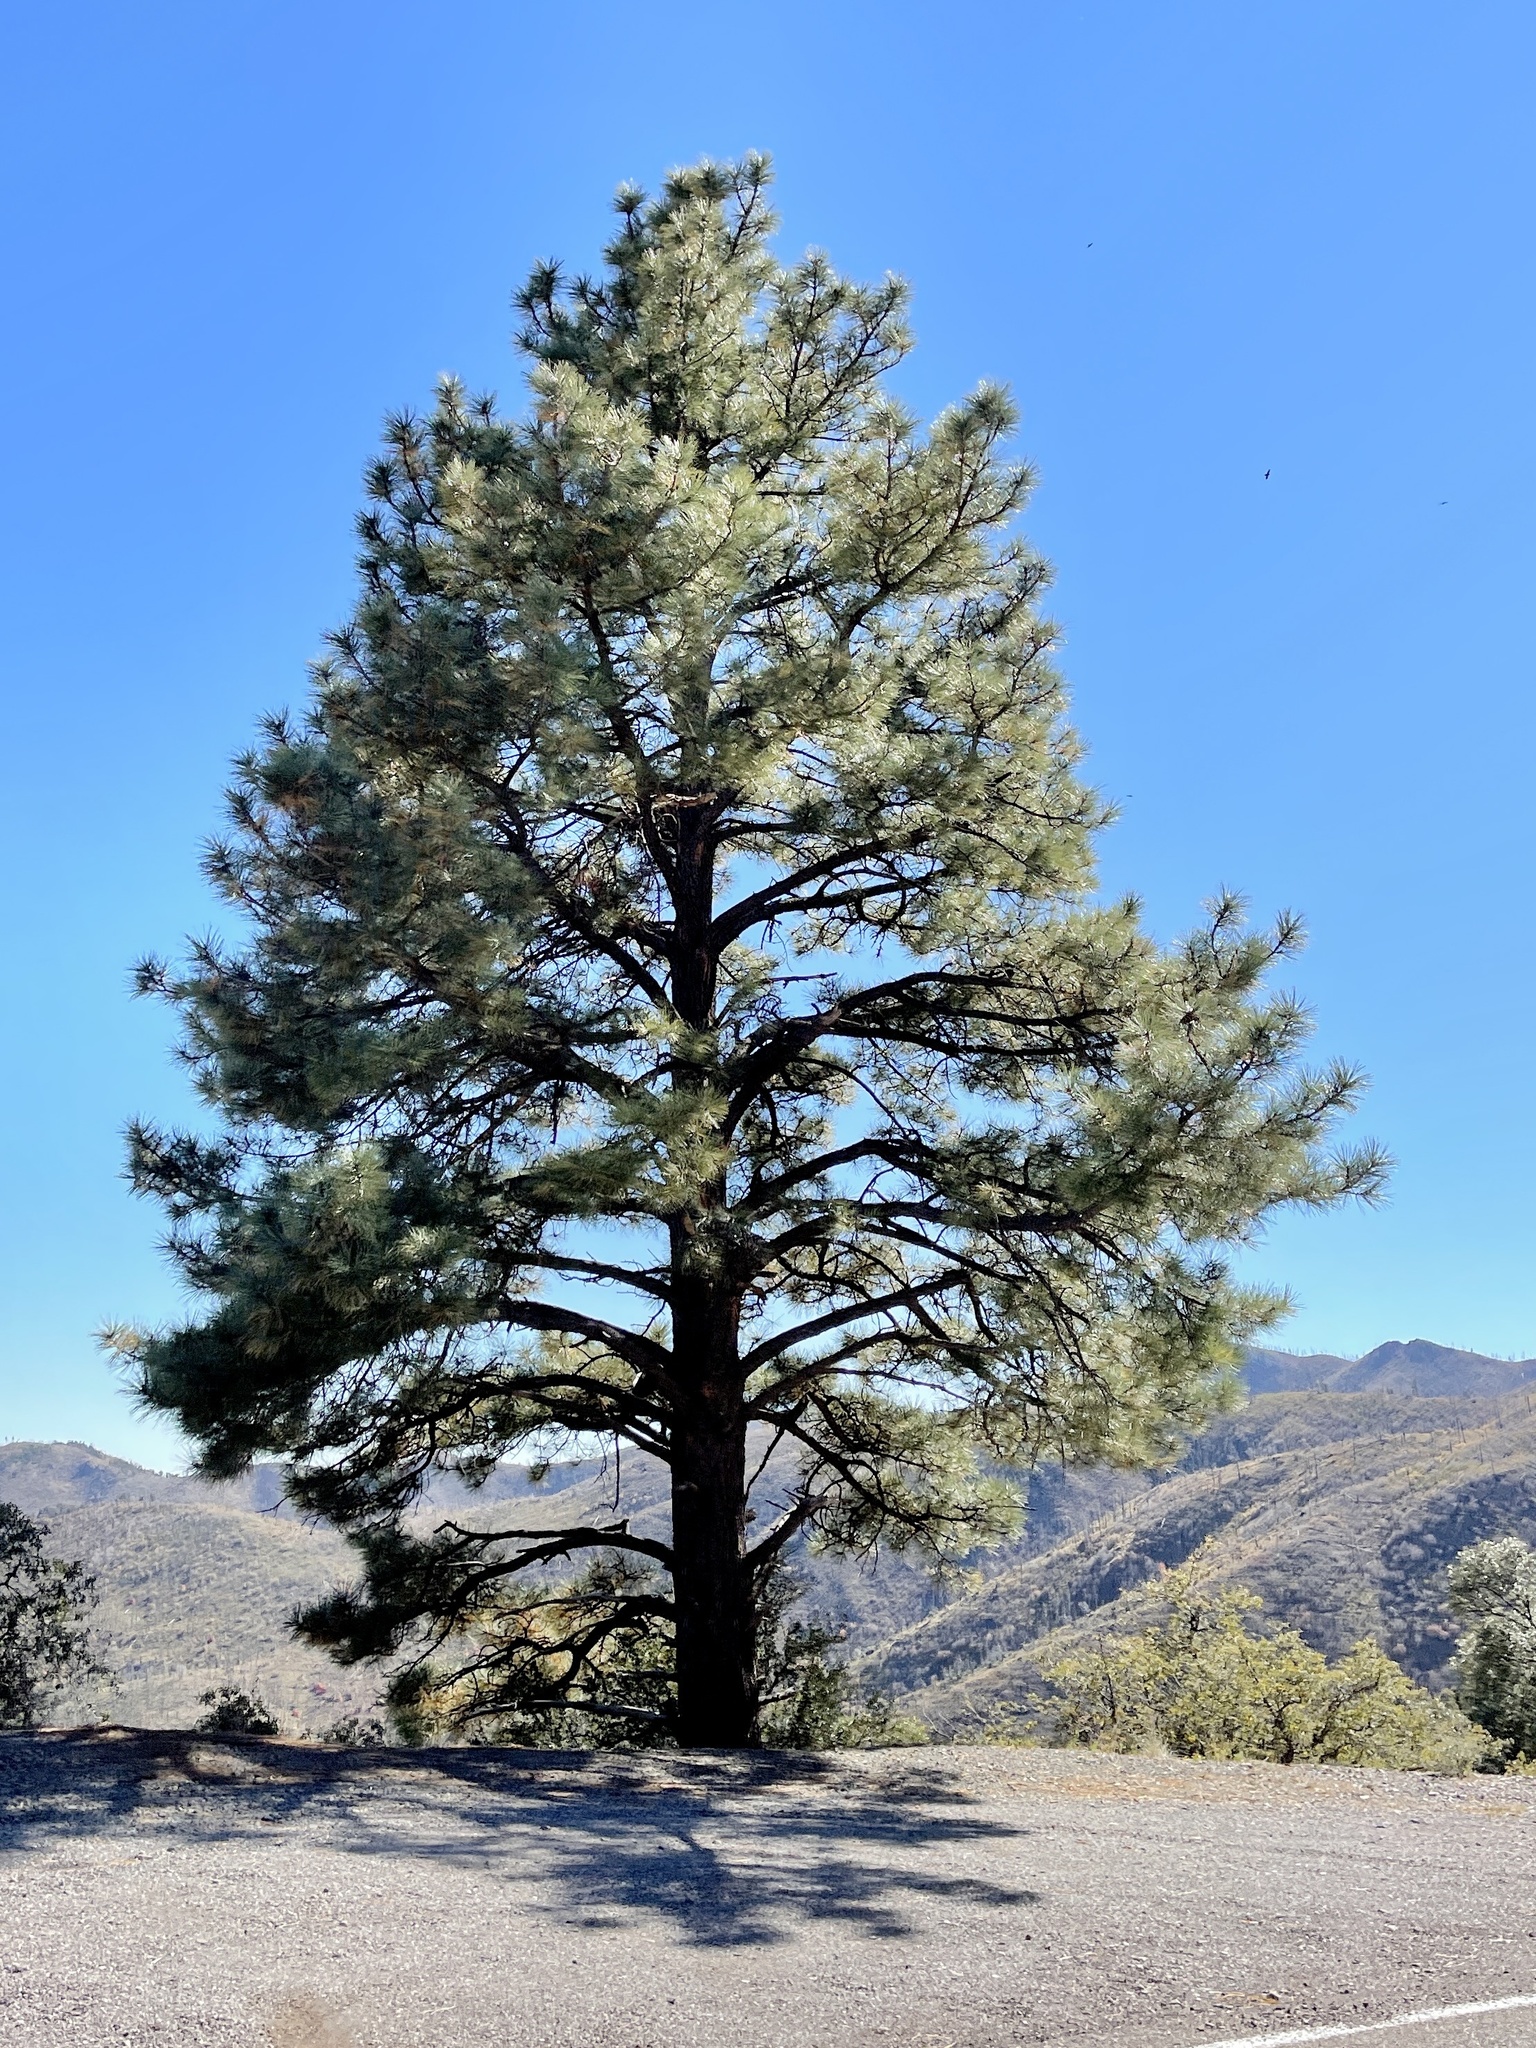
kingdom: Plantae
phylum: Tracheophyta
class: Pinopsida
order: Pinales
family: Pinaceae
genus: Pinus
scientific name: Pinus ponderosa
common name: Western yellow-pine
